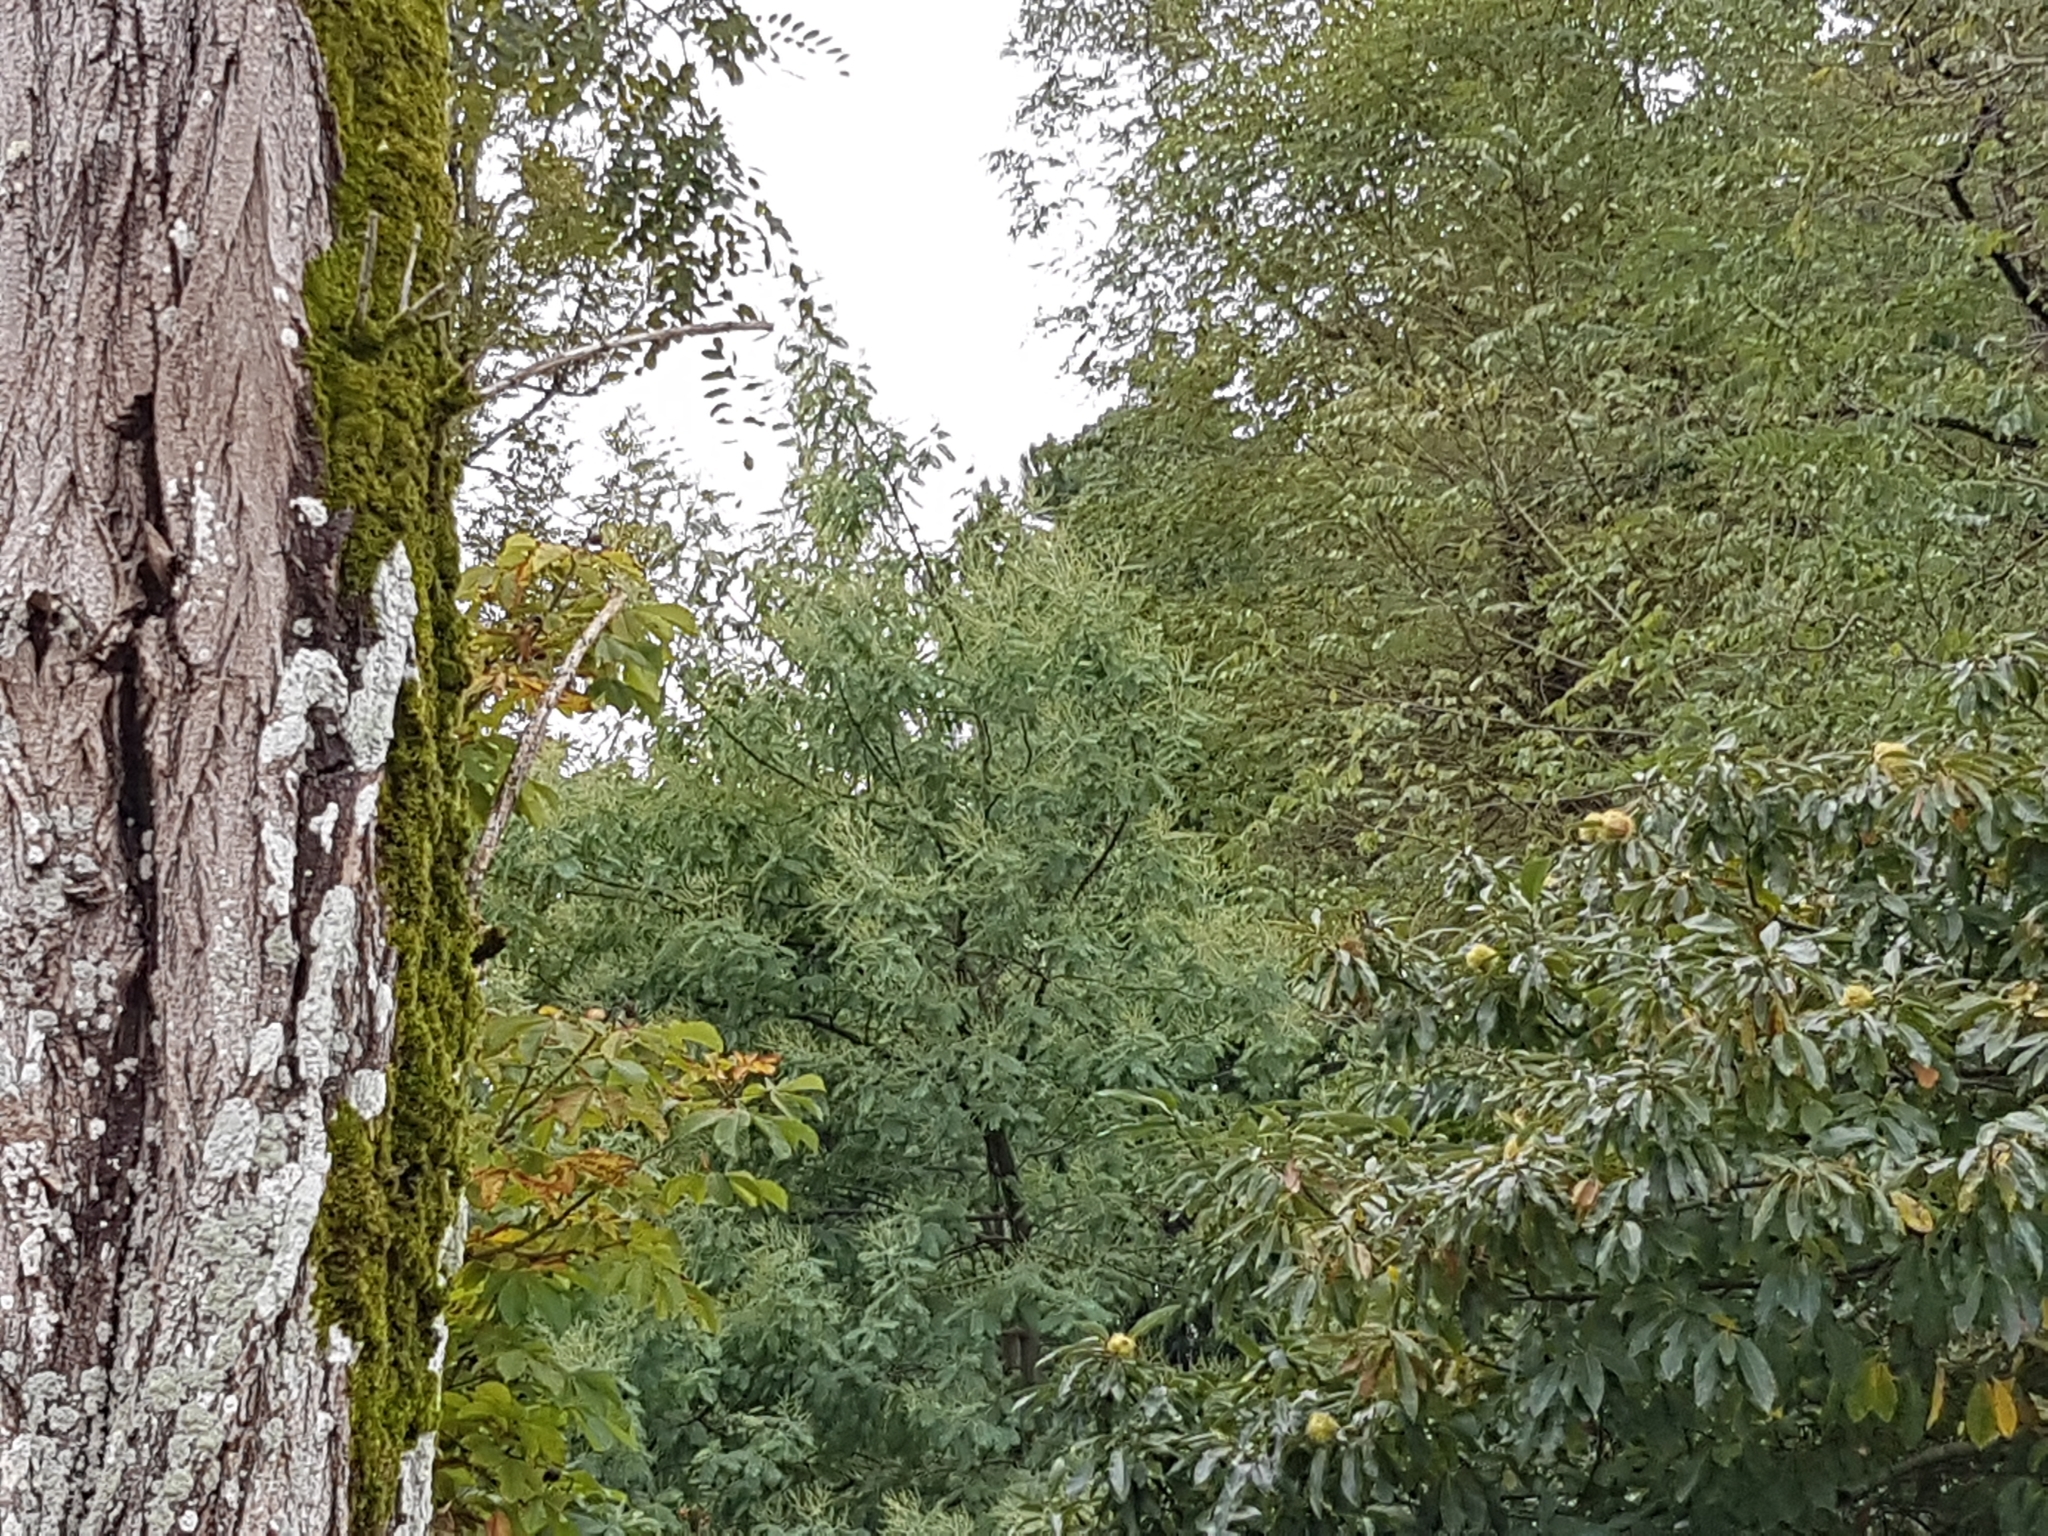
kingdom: Plantae
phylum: Tracheophyta
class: Magnoliopsida
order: Fabales
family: Fabaceae
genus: Acacia
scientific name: Acacia dealbata
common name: Silver wattle
